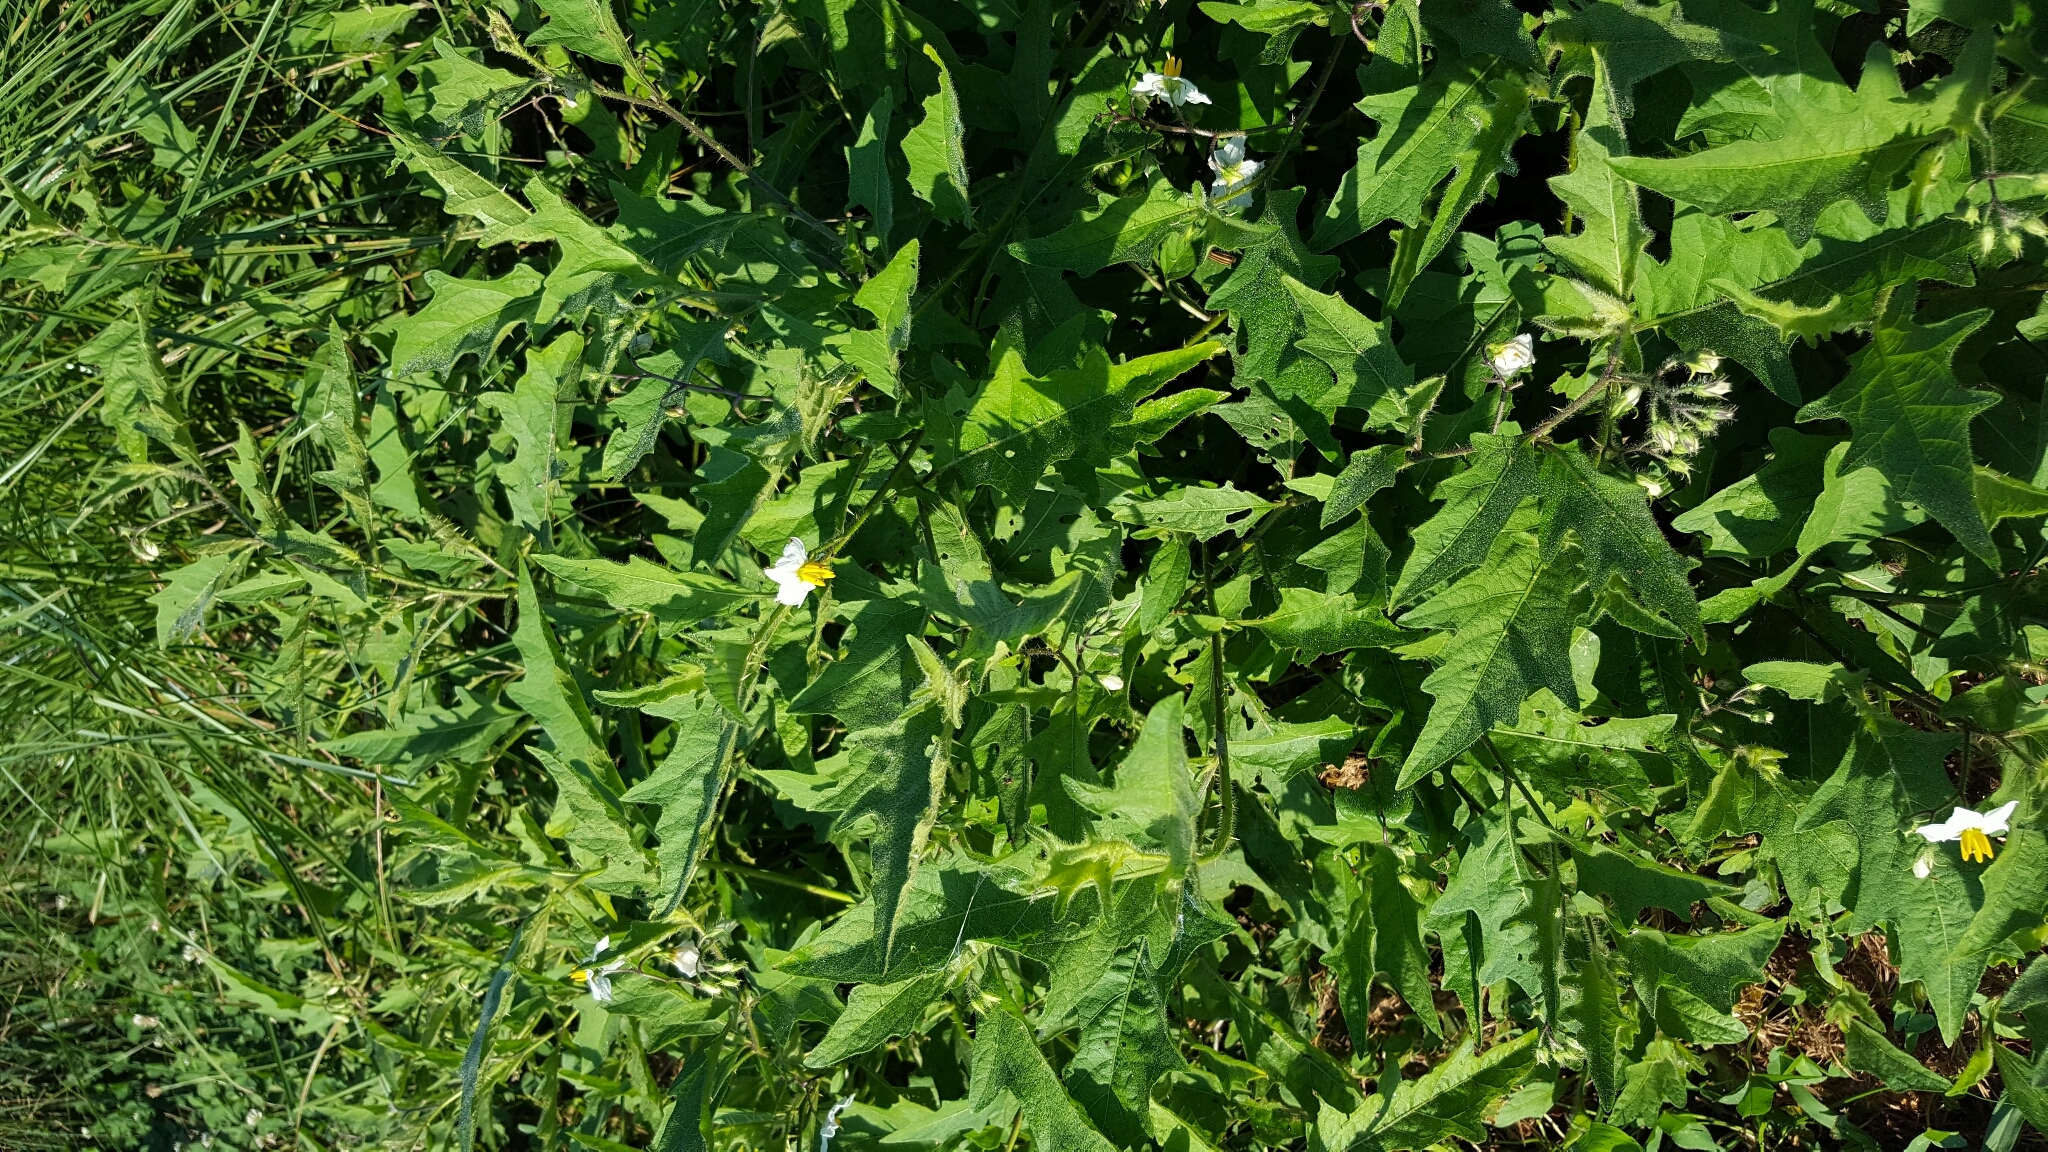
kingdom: Plantae
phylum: Tracheophyta
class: Magnoliopsida
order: Solanales
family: Solanaceae
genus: Solanum
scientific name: Solanum carolinense
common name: Horse-nettle
